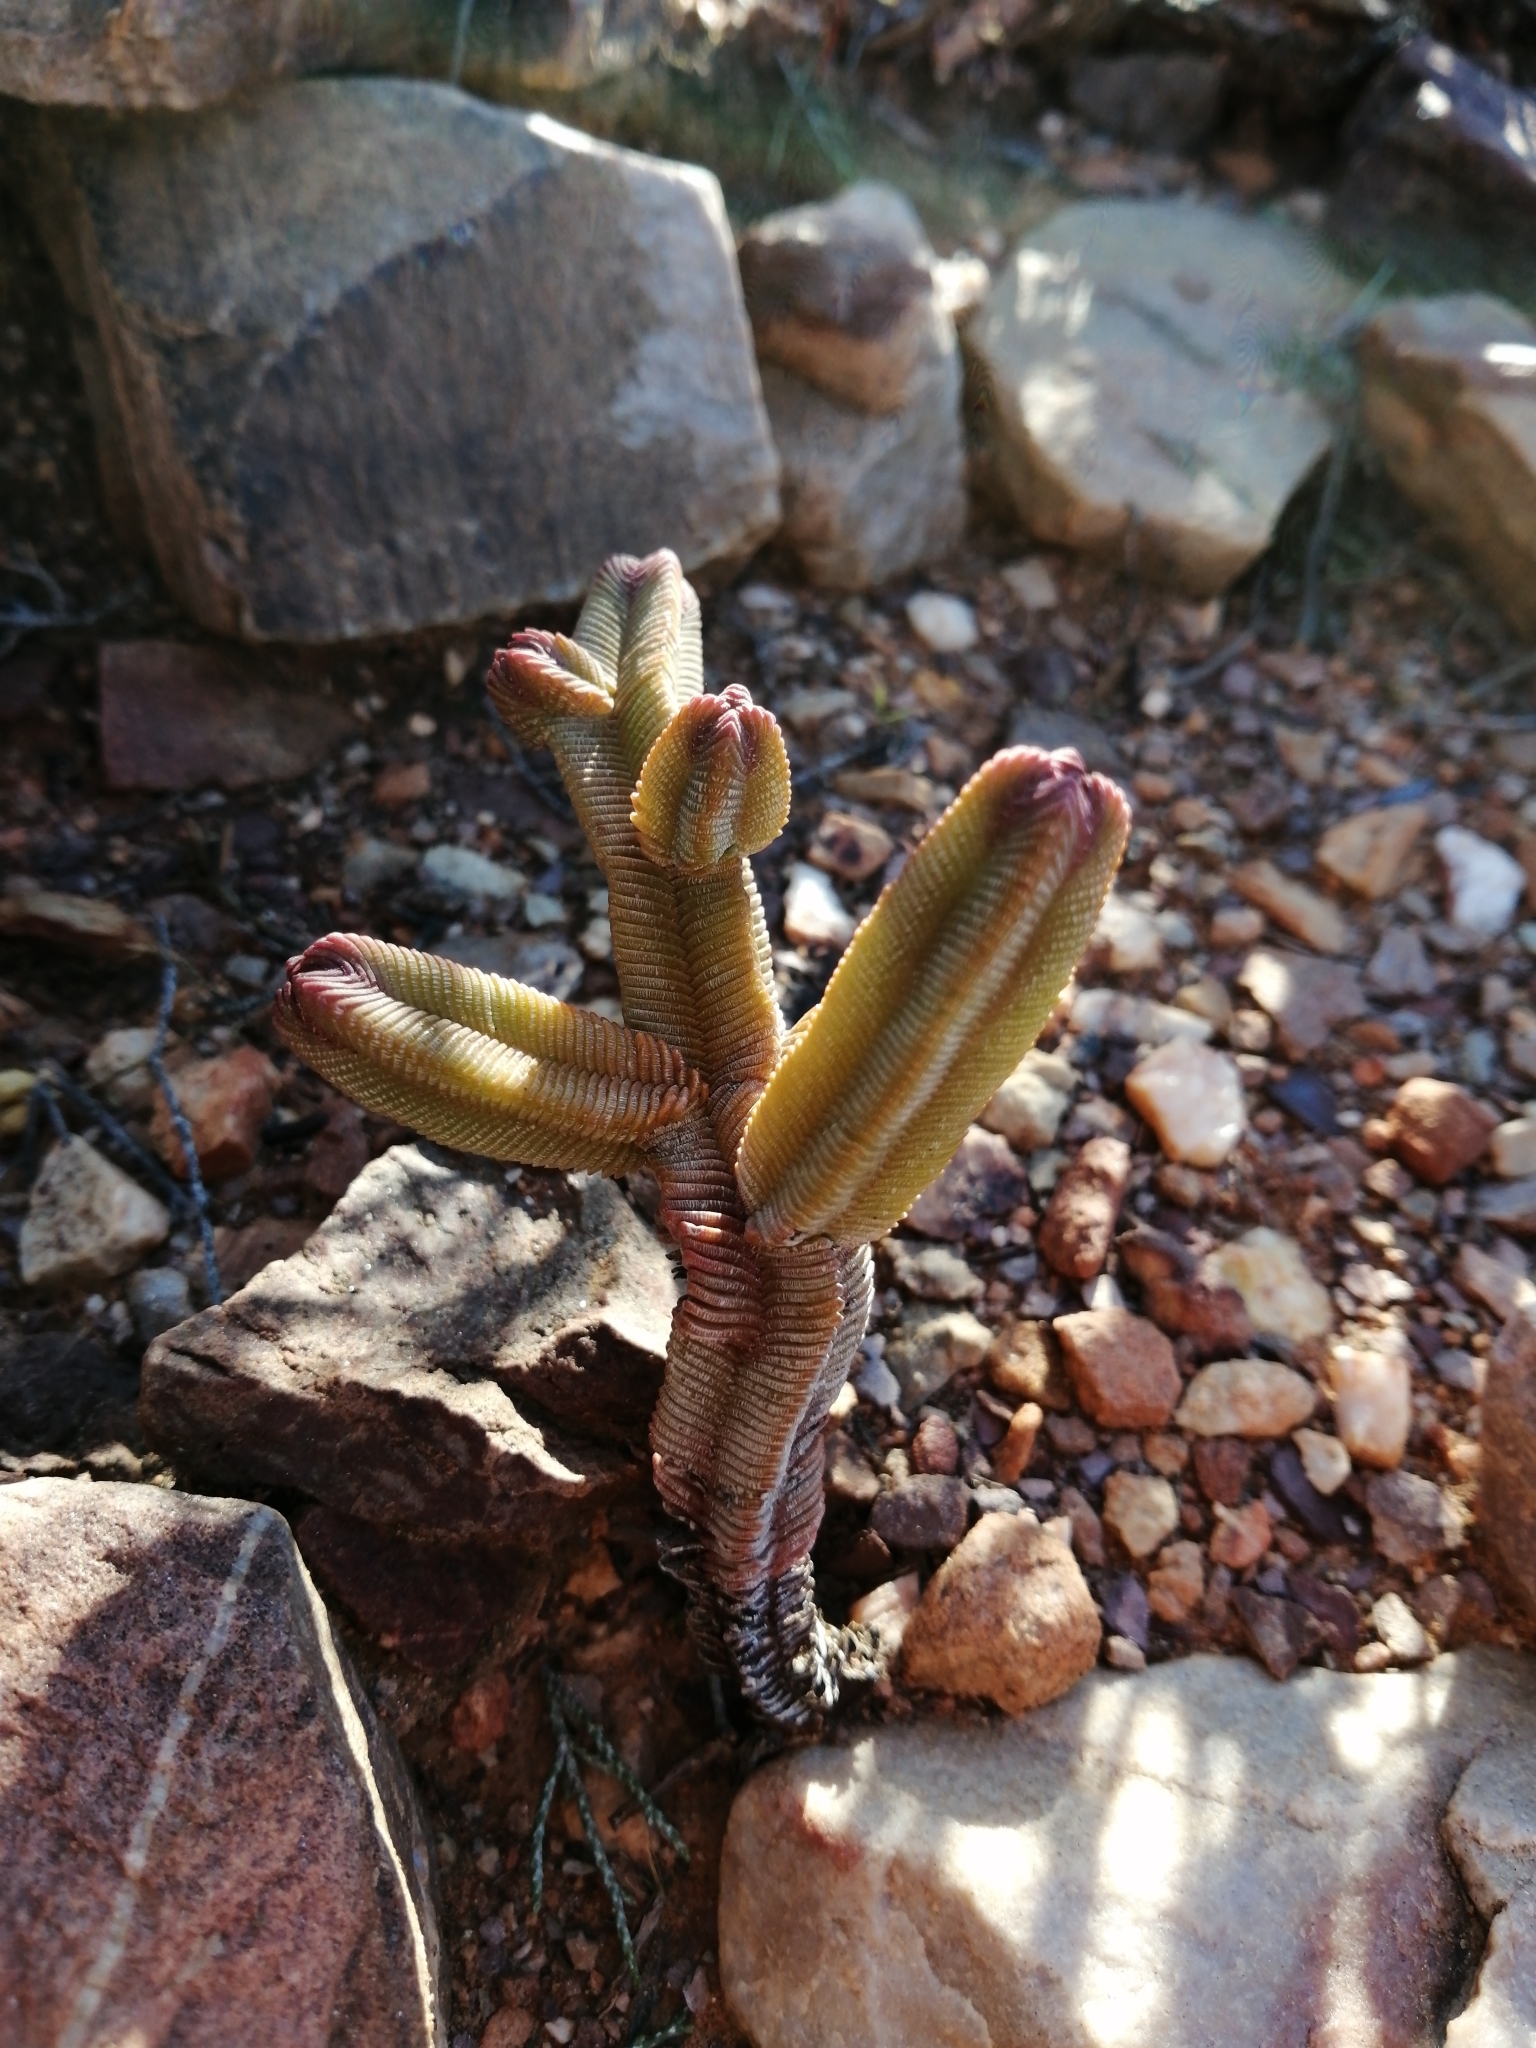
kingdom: Plantae
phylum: Tracheophyta
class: Magnoliopsida
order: Saxifragales
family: Crassulaceae
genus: Crassula
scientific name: Crassula pyramidalis
